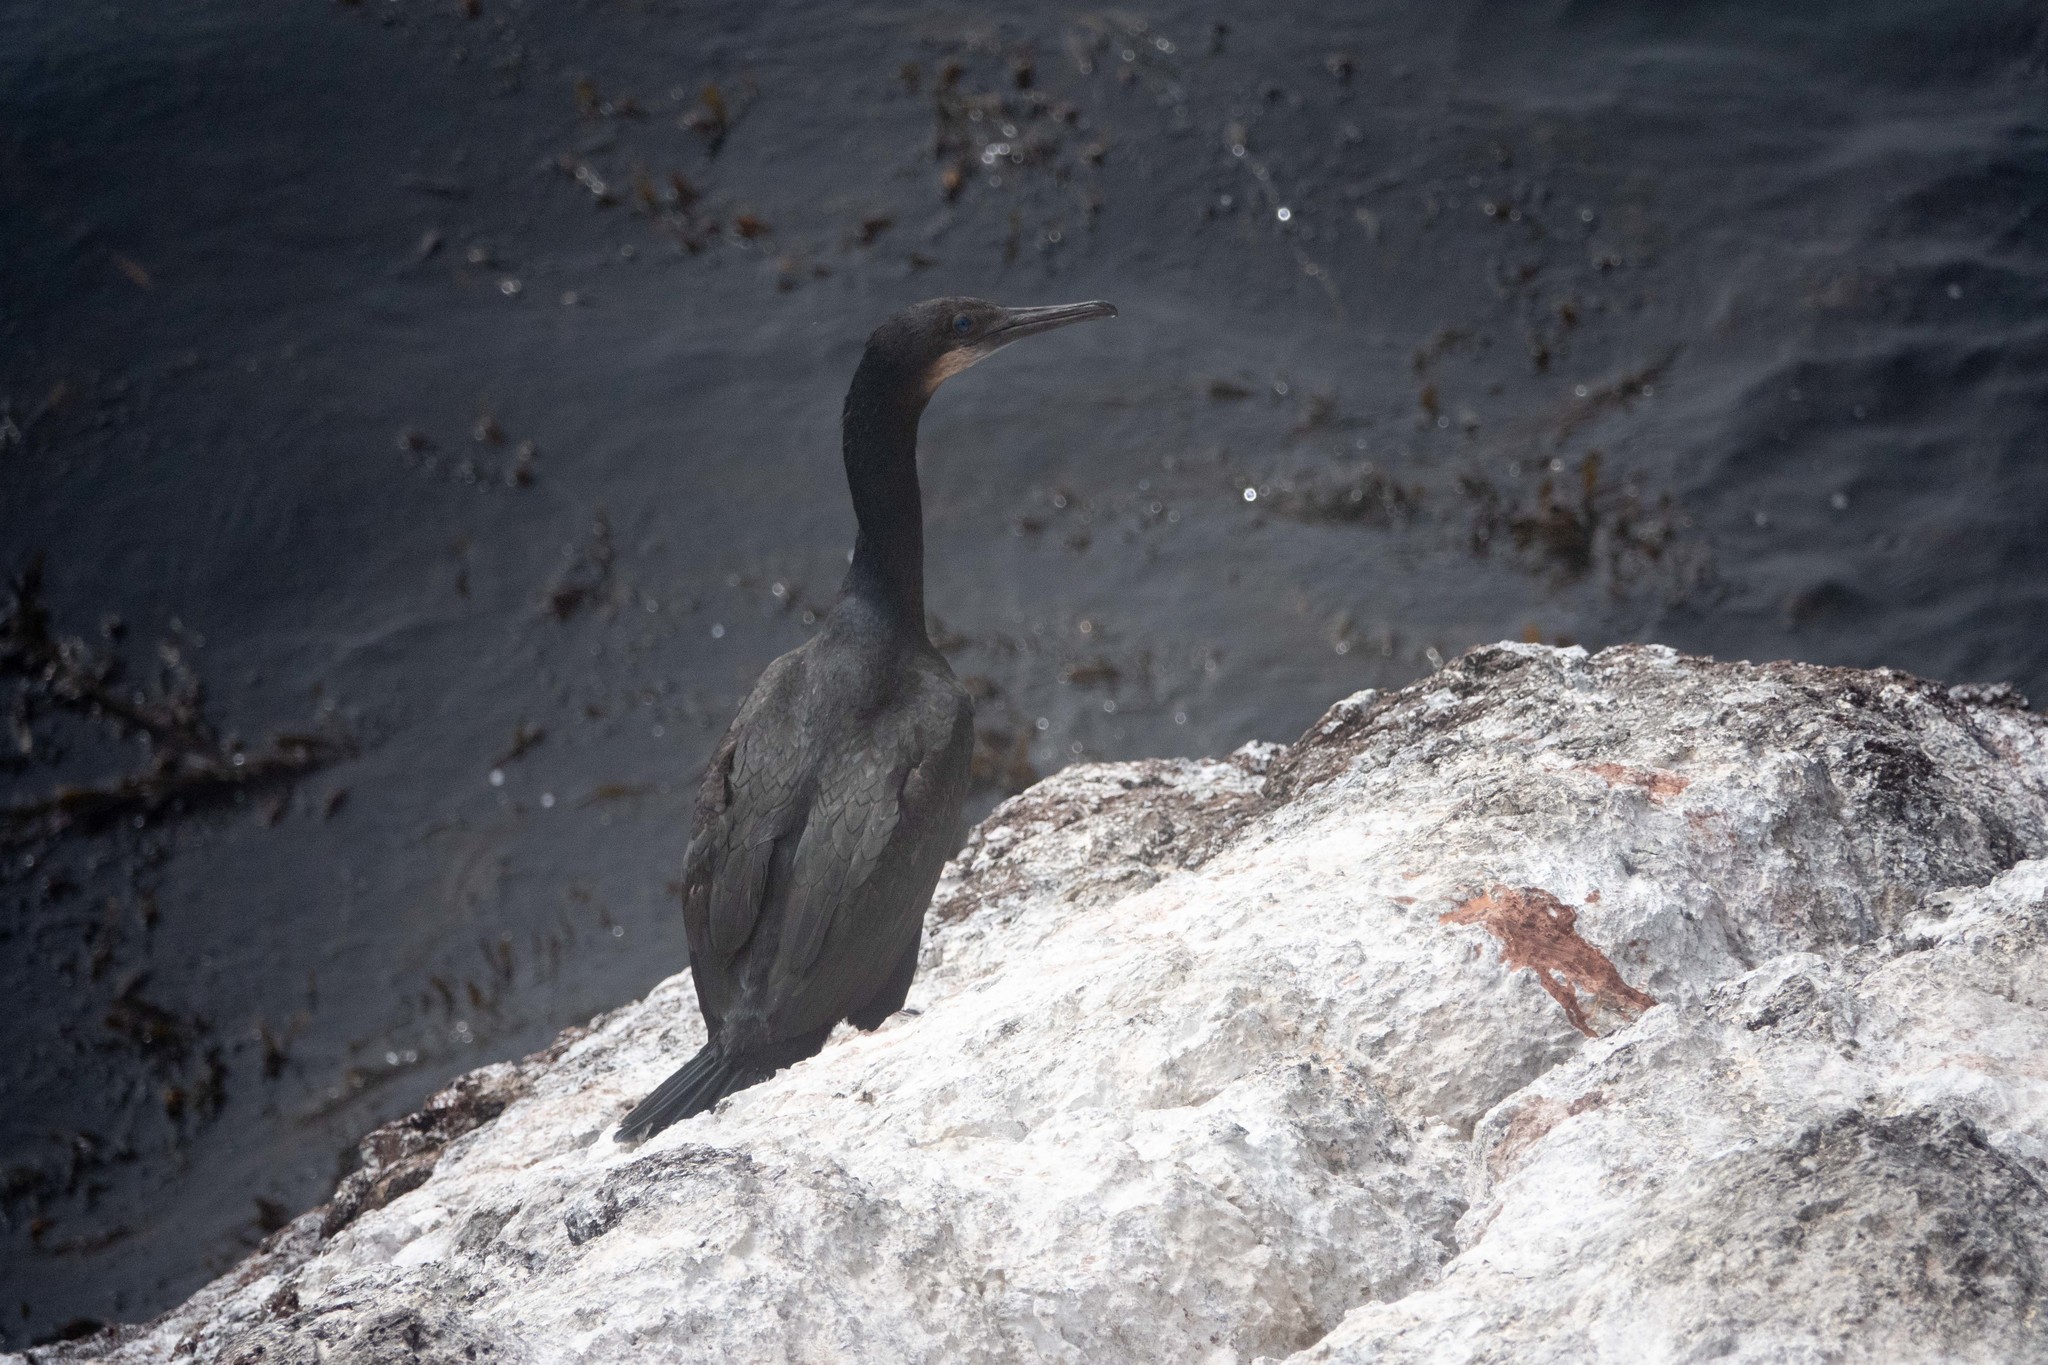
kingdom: Animalia
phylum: Chordata
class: Aves
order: Suliformes
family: Phalacrocoracidae
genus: Urile
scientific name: Urile penicillatus
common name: Brandt's cormorant
